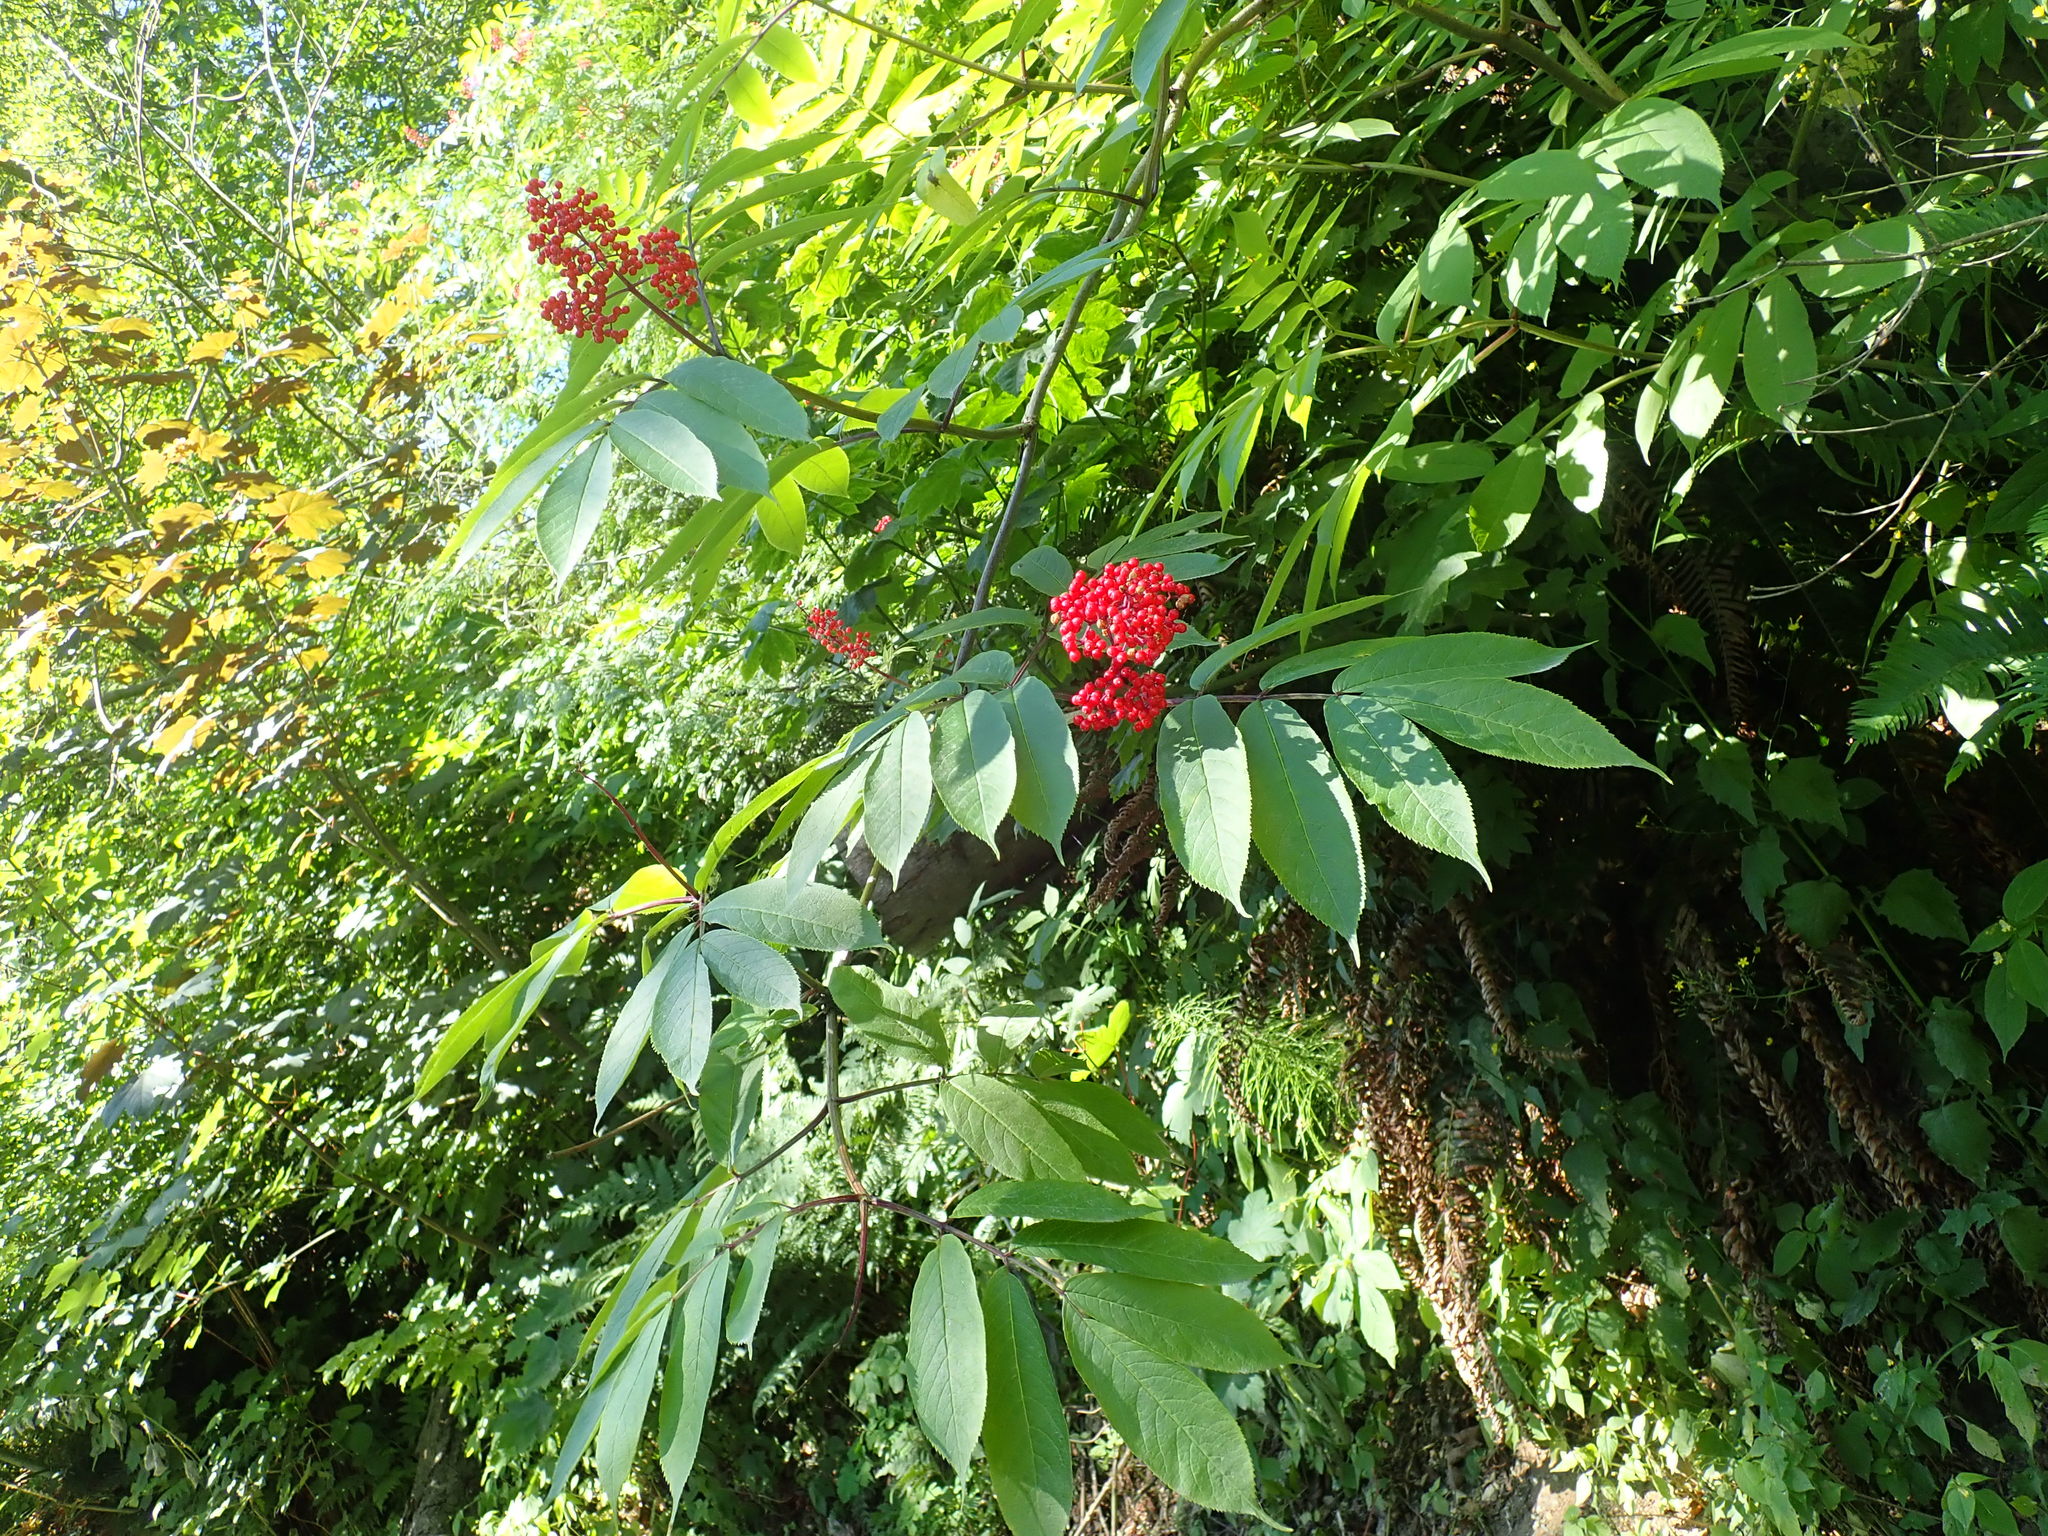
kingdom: Plantae
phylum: Tracheophyta
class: Magnoliopsida
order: Dipsacales
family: Viburnaceae
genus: Sambucus
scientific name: Sambucus racemosa
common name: Red-berried elder
